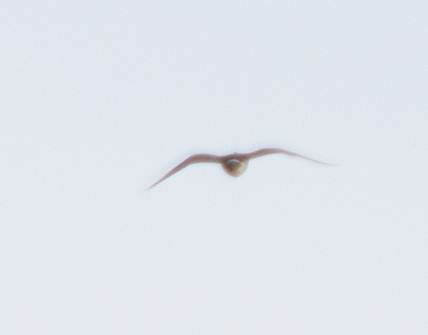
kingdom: Animalia
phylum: Chordata
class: Aves
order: Charadriiformes
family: Charadriidae
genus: Vanellus
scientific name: Vanellus vanellus
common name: Northern lapwing
